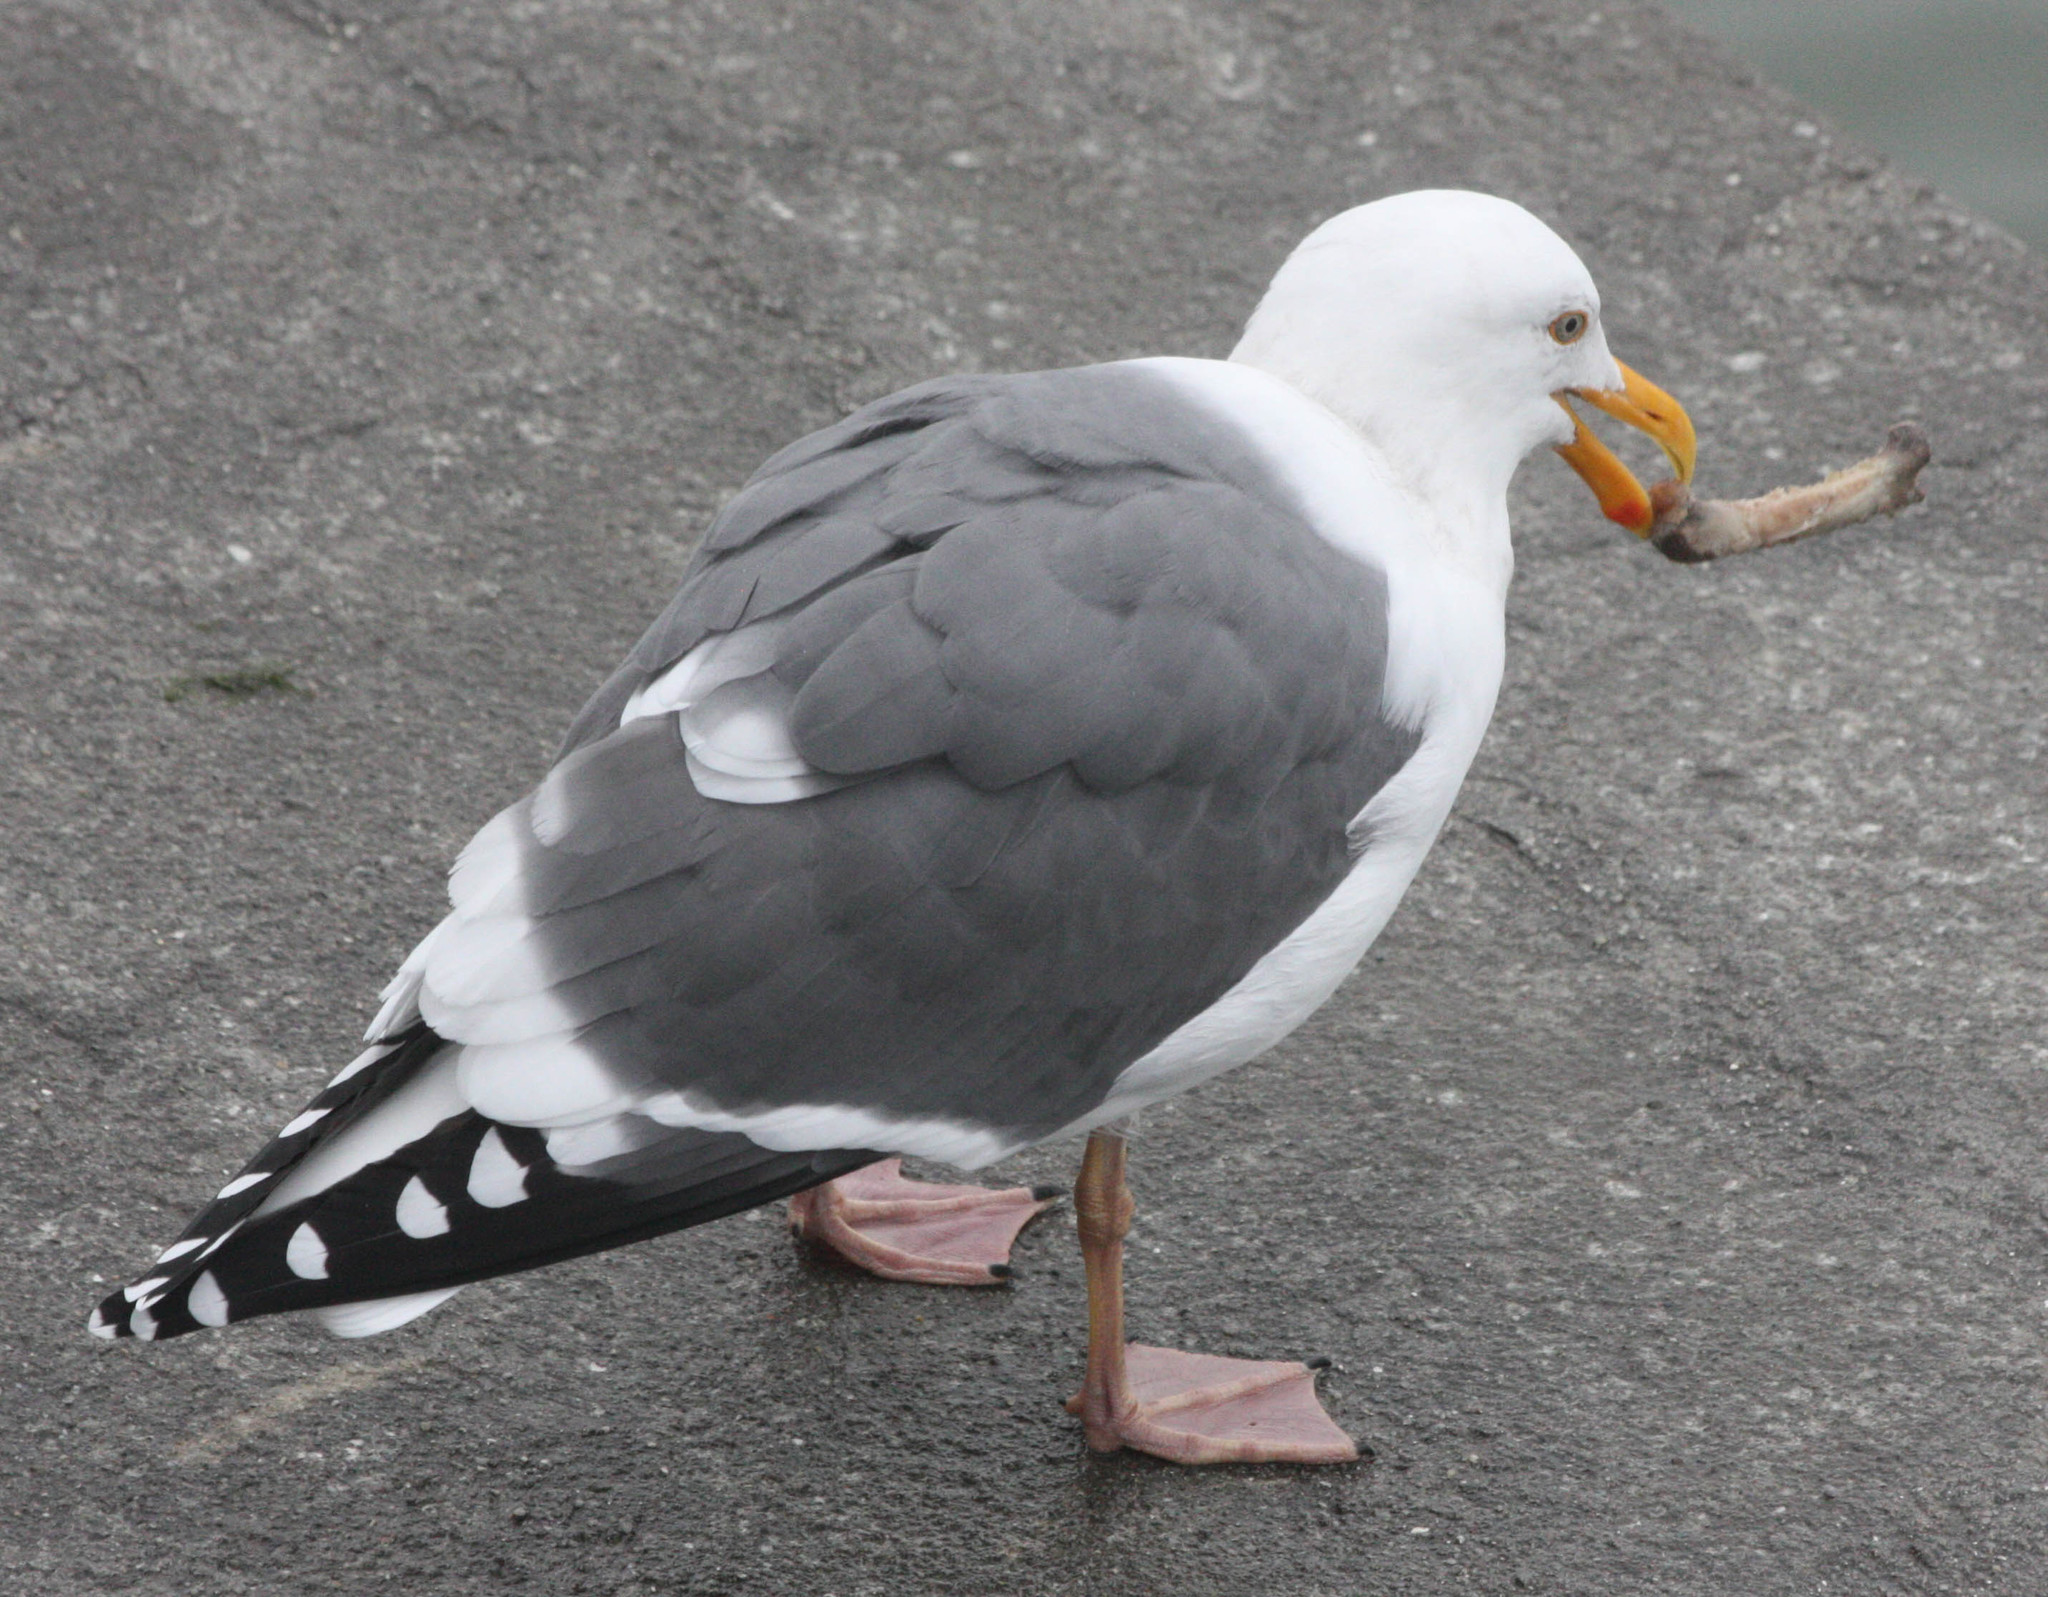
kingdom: Animalia
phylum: Chordata
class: Aves
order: Charadriiformes
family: Laridae
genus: Larus
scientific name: Larus occidentalis
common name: Western gull
